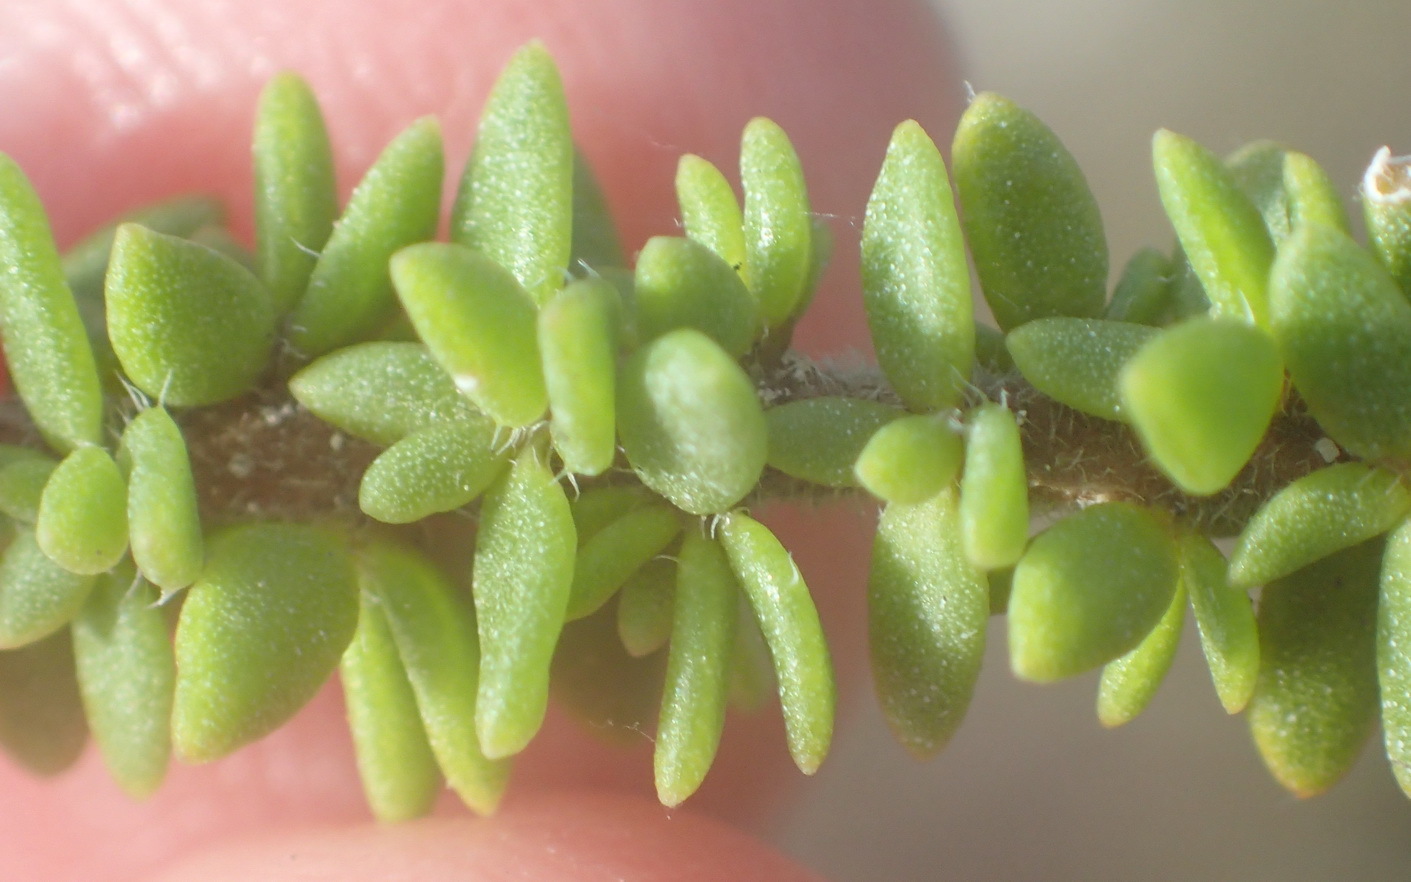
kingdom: Plantae
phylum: Tracheophyta
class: Magnoliopsida
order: Lamiales
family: Scrophulariaceae
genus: Selago
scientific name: Selago setulosa
